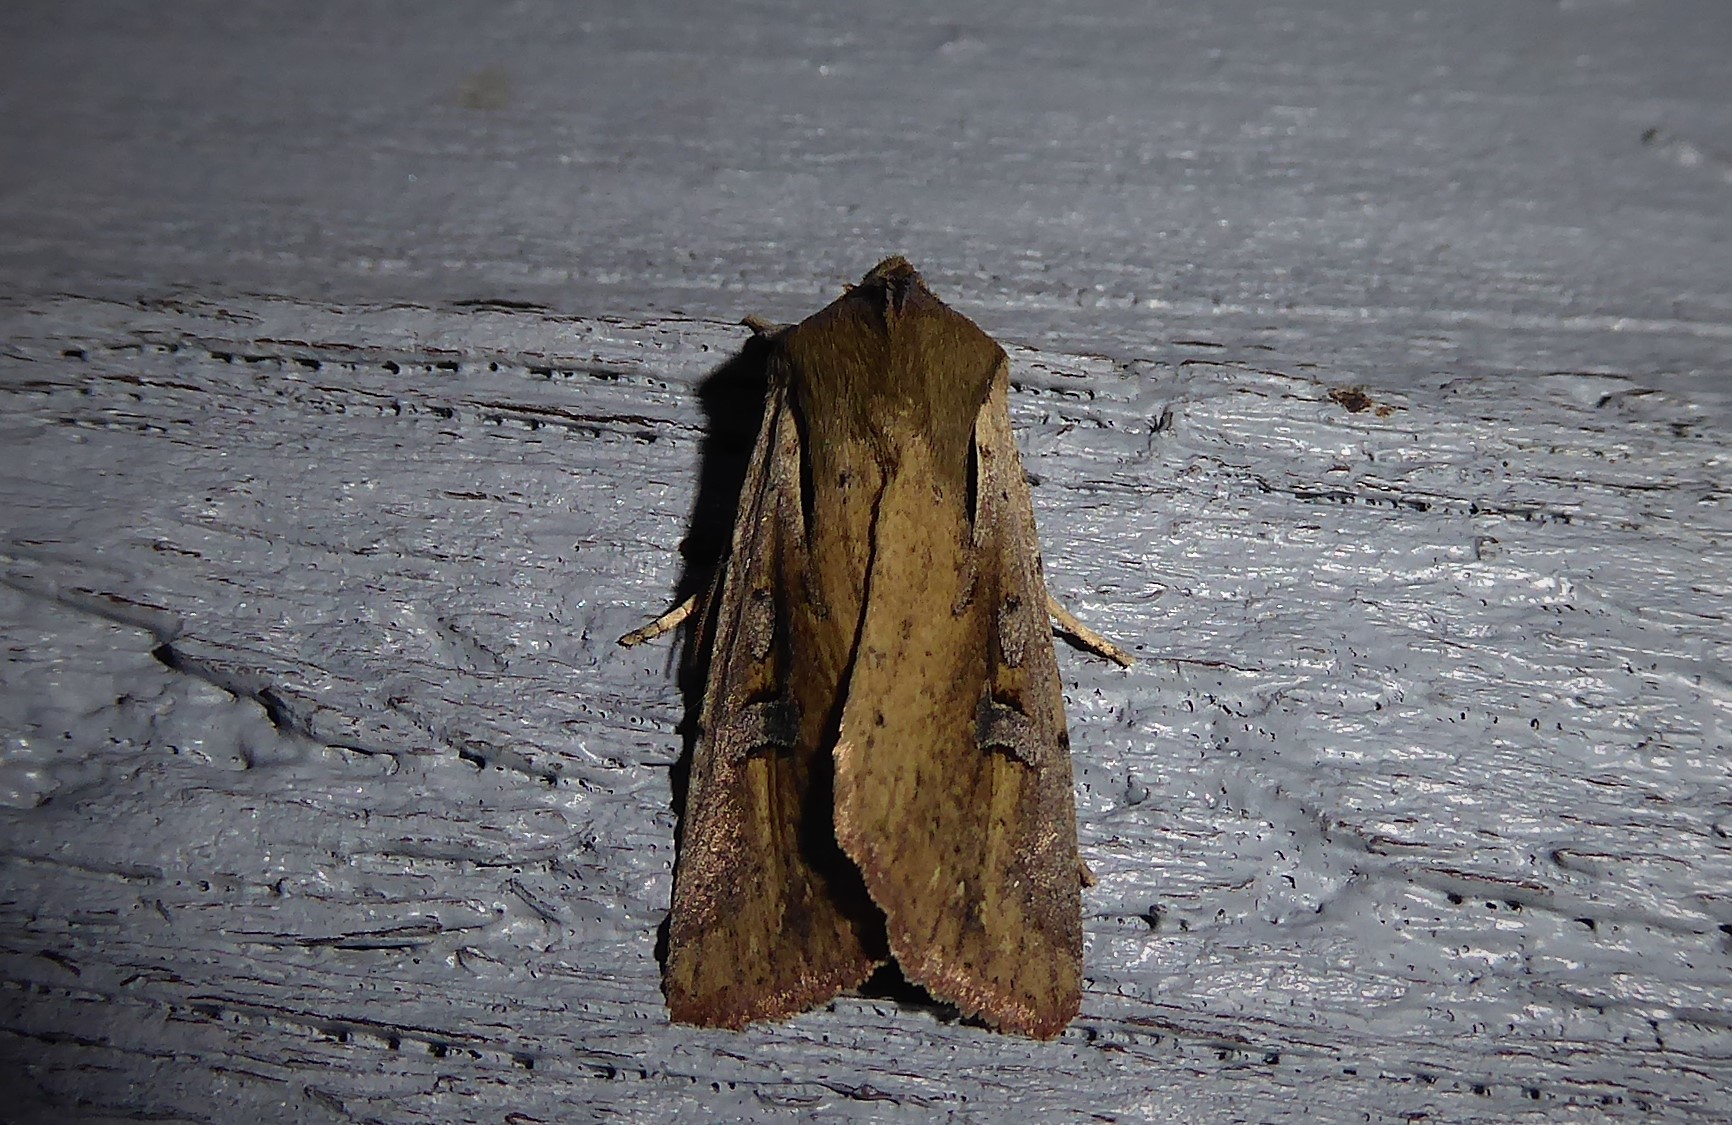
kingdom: Animalia
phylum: Arthropoda
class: Insecta
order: Lepidoptera
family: Noctuidae
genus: Ichneutica
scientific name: Ichneutica atristriga
